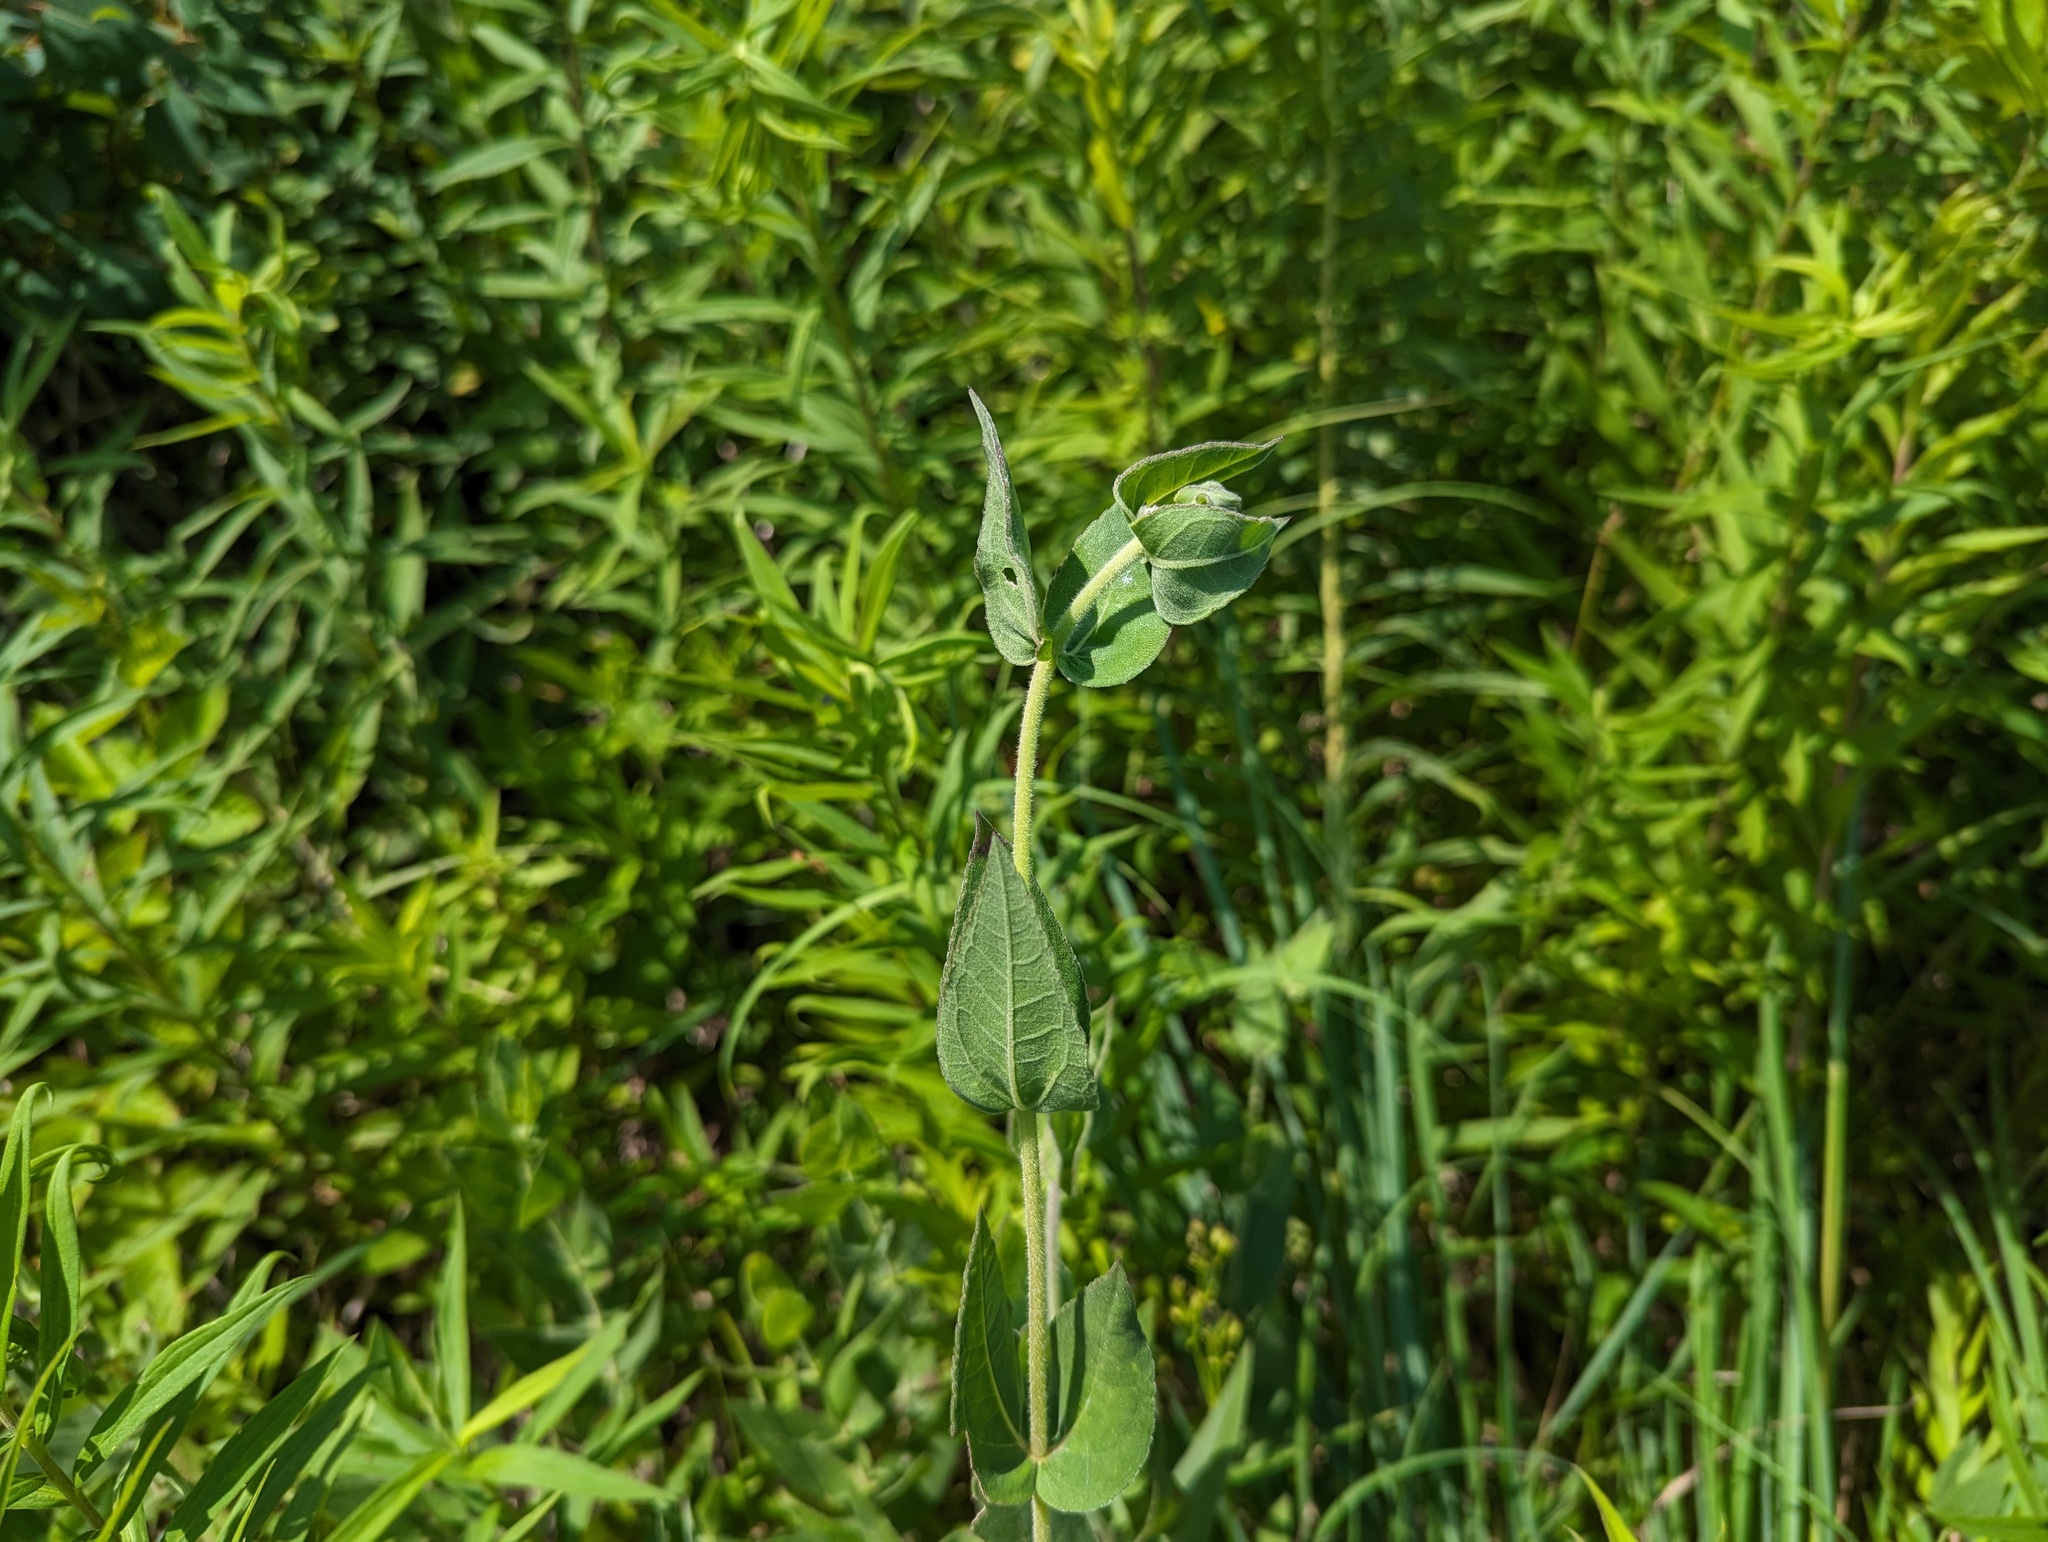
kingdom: Plantae
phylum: Tracheophyta
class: Magnoliopsida
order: Asterales
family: Asteraceae
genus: Helianthus
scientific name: Helianthus mollis
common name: Ashy sunflower
